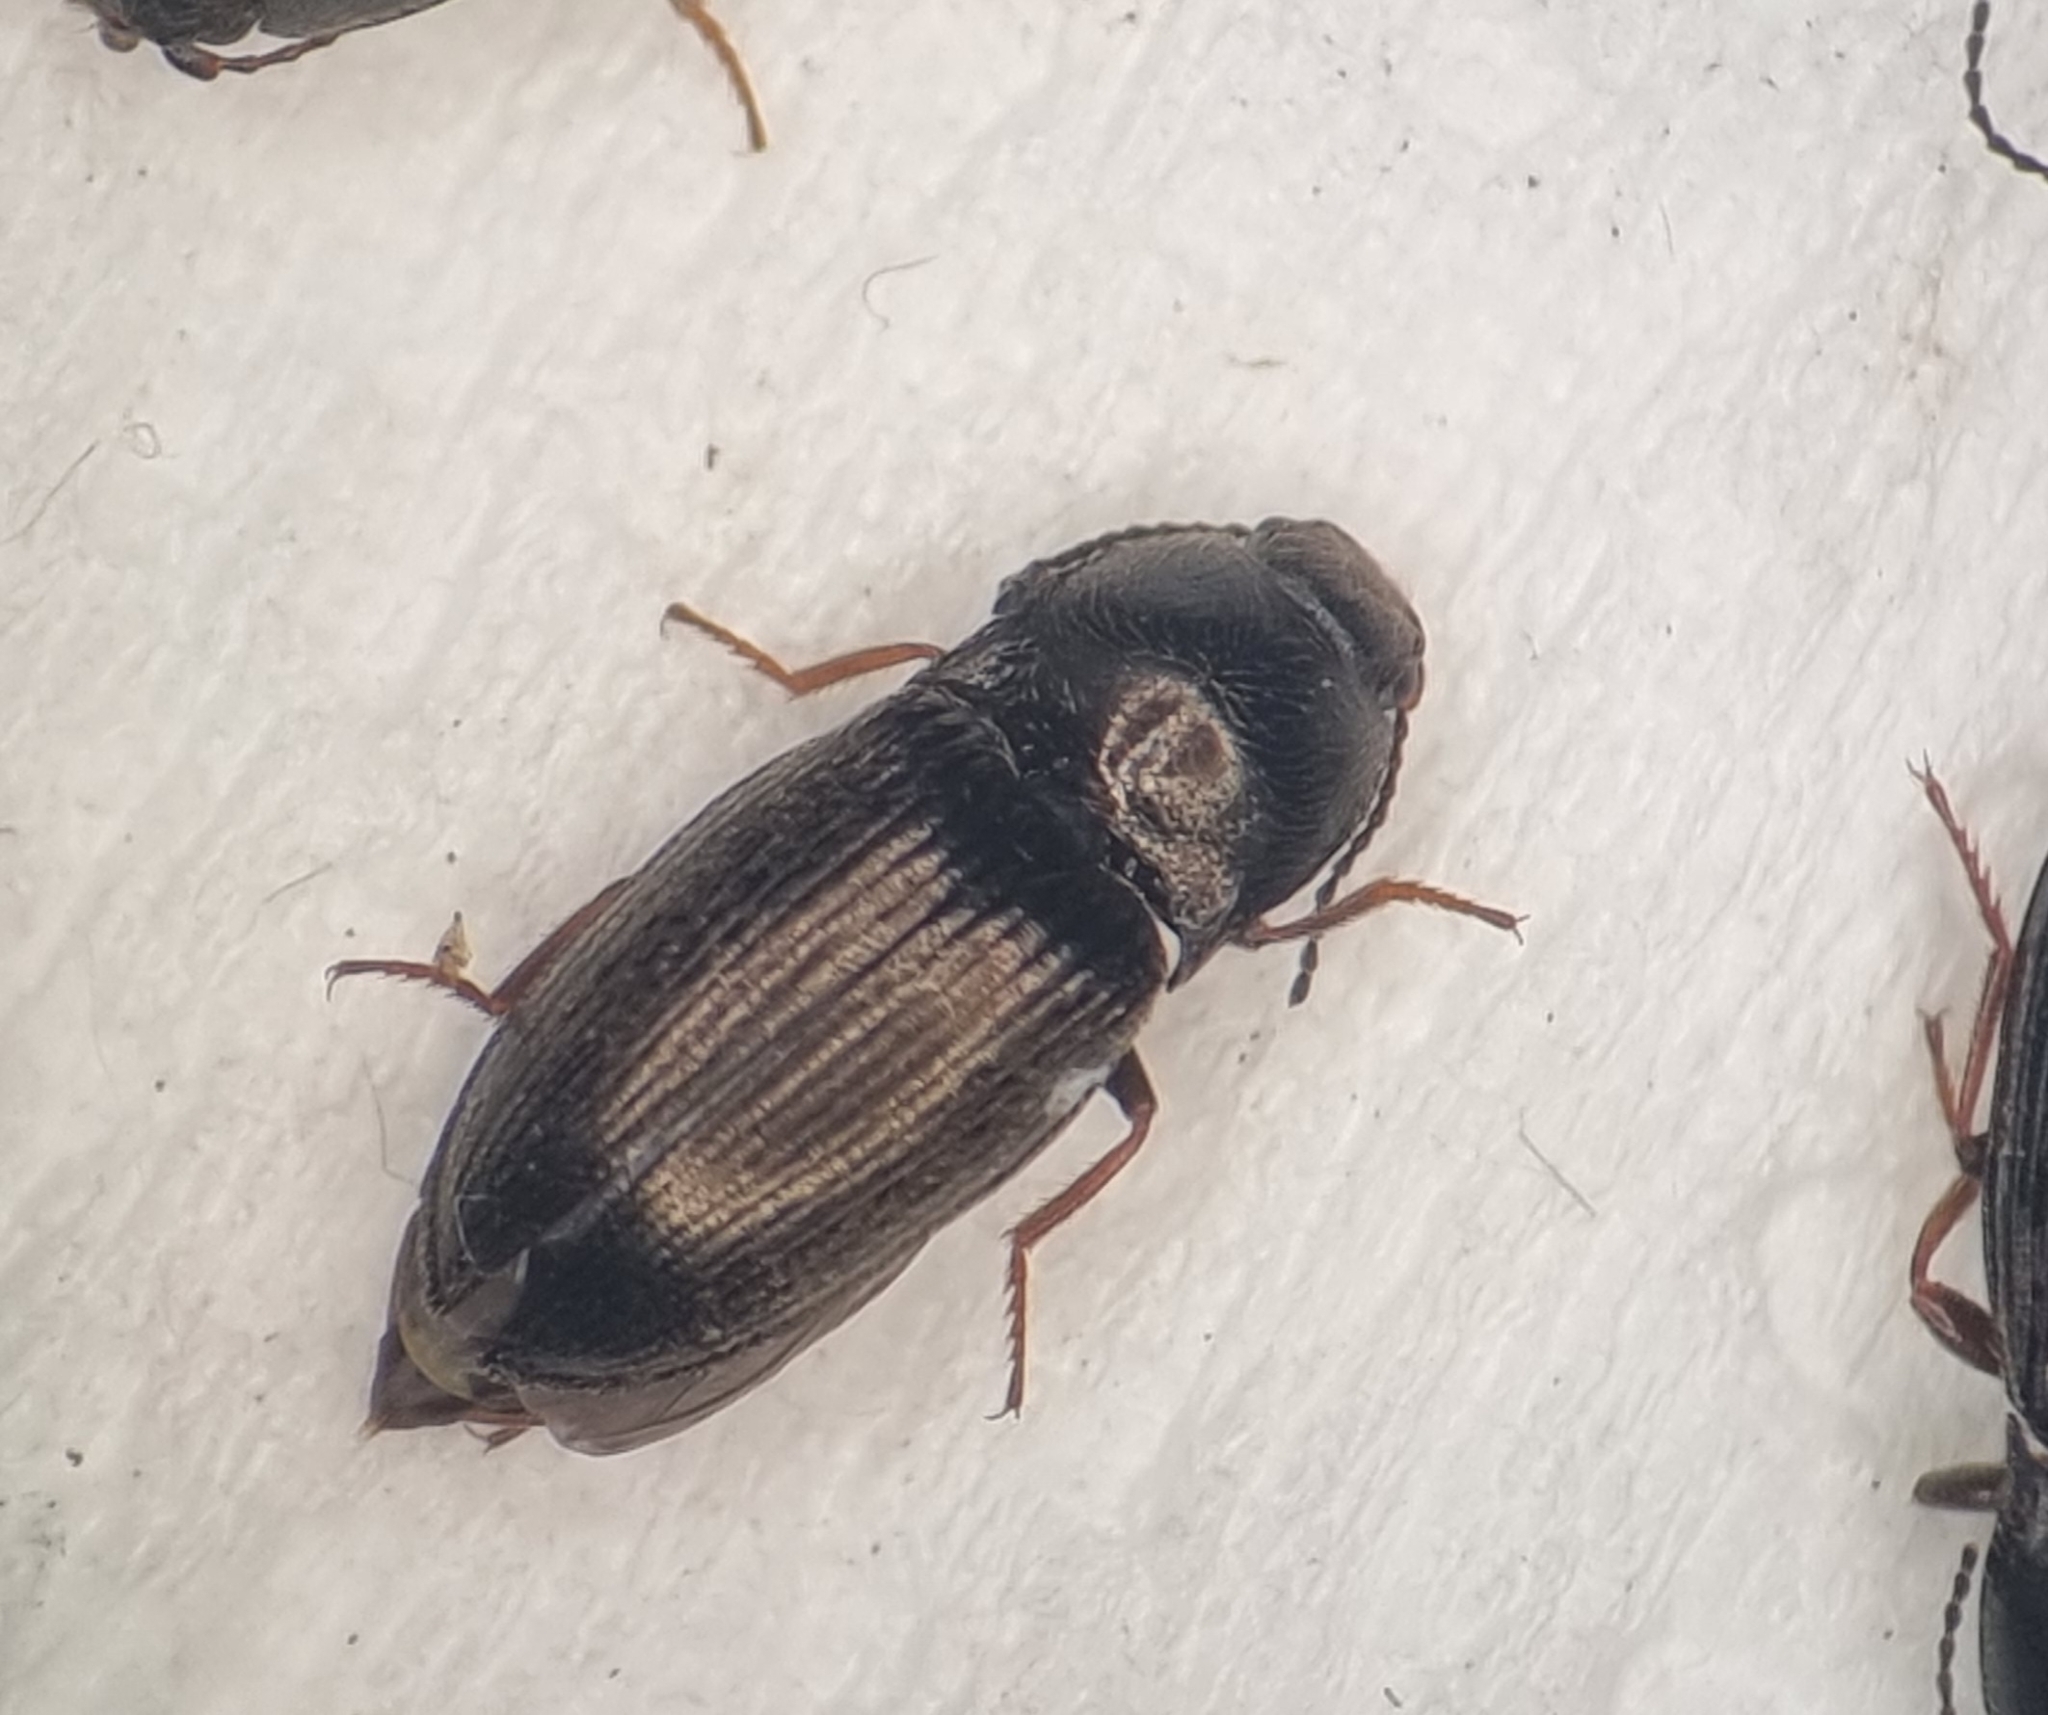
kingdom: Animalia
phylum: Arthropoda
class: Insecta
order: Coleoptera
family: Elateridae
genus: Hypnoidus
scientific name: Hypnoidus riparius
